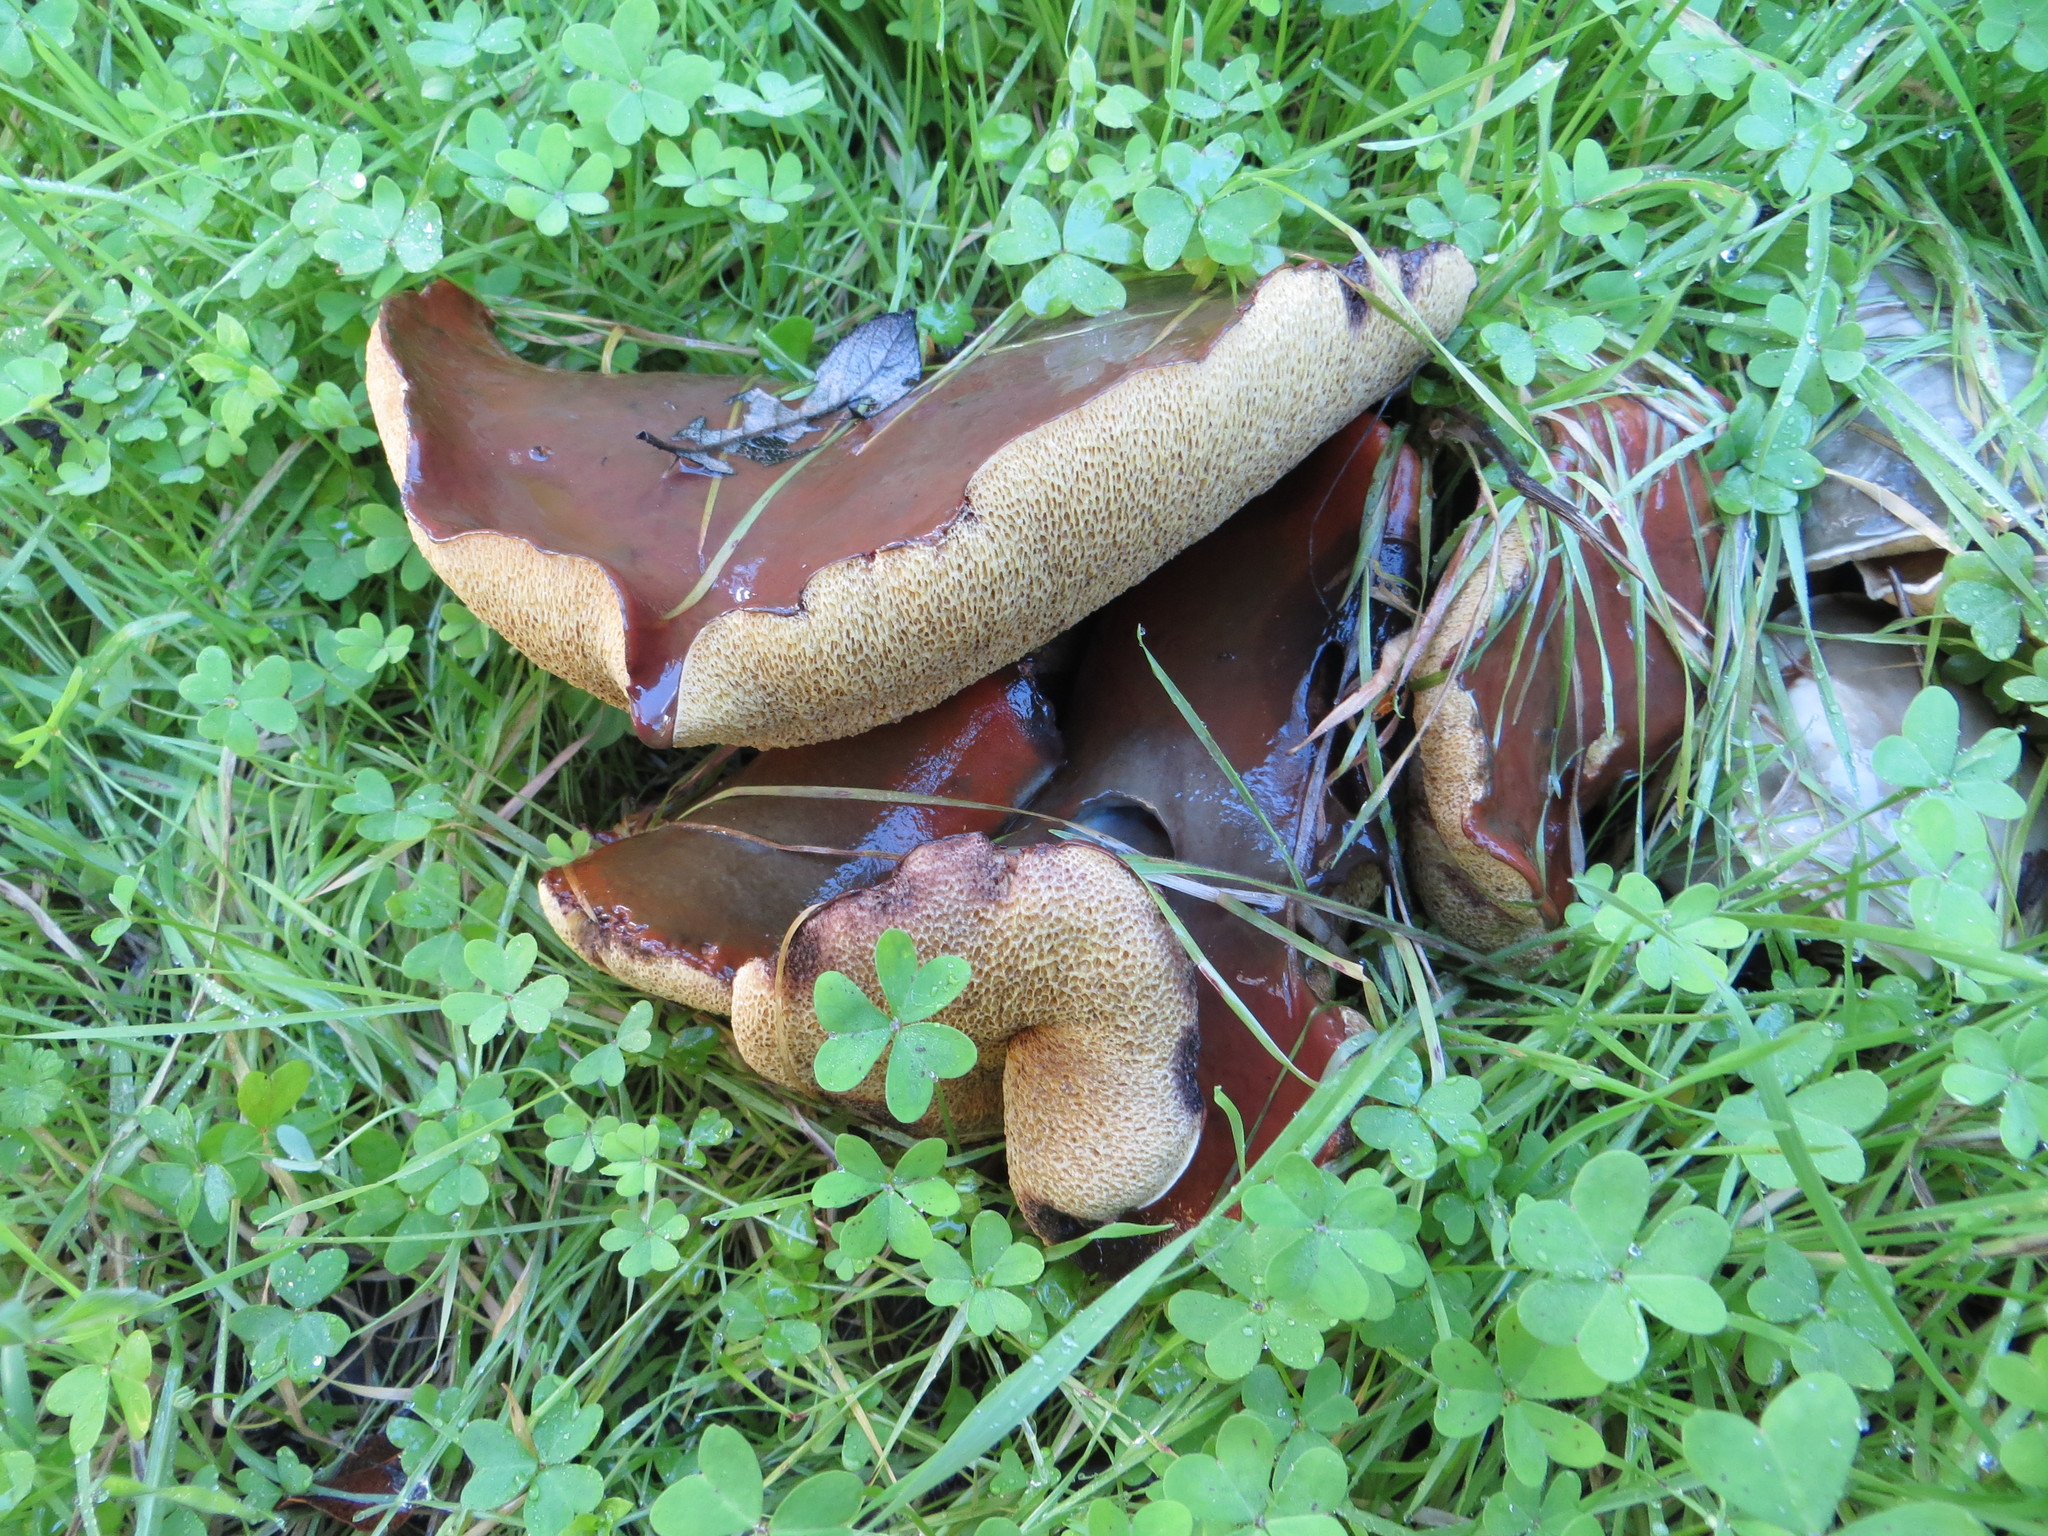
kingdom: Fungi
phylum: Basidiomycota
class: Agaricomycetes
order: Boletales
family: Suillaceae
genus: Suillus
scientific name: Suillus pungens
